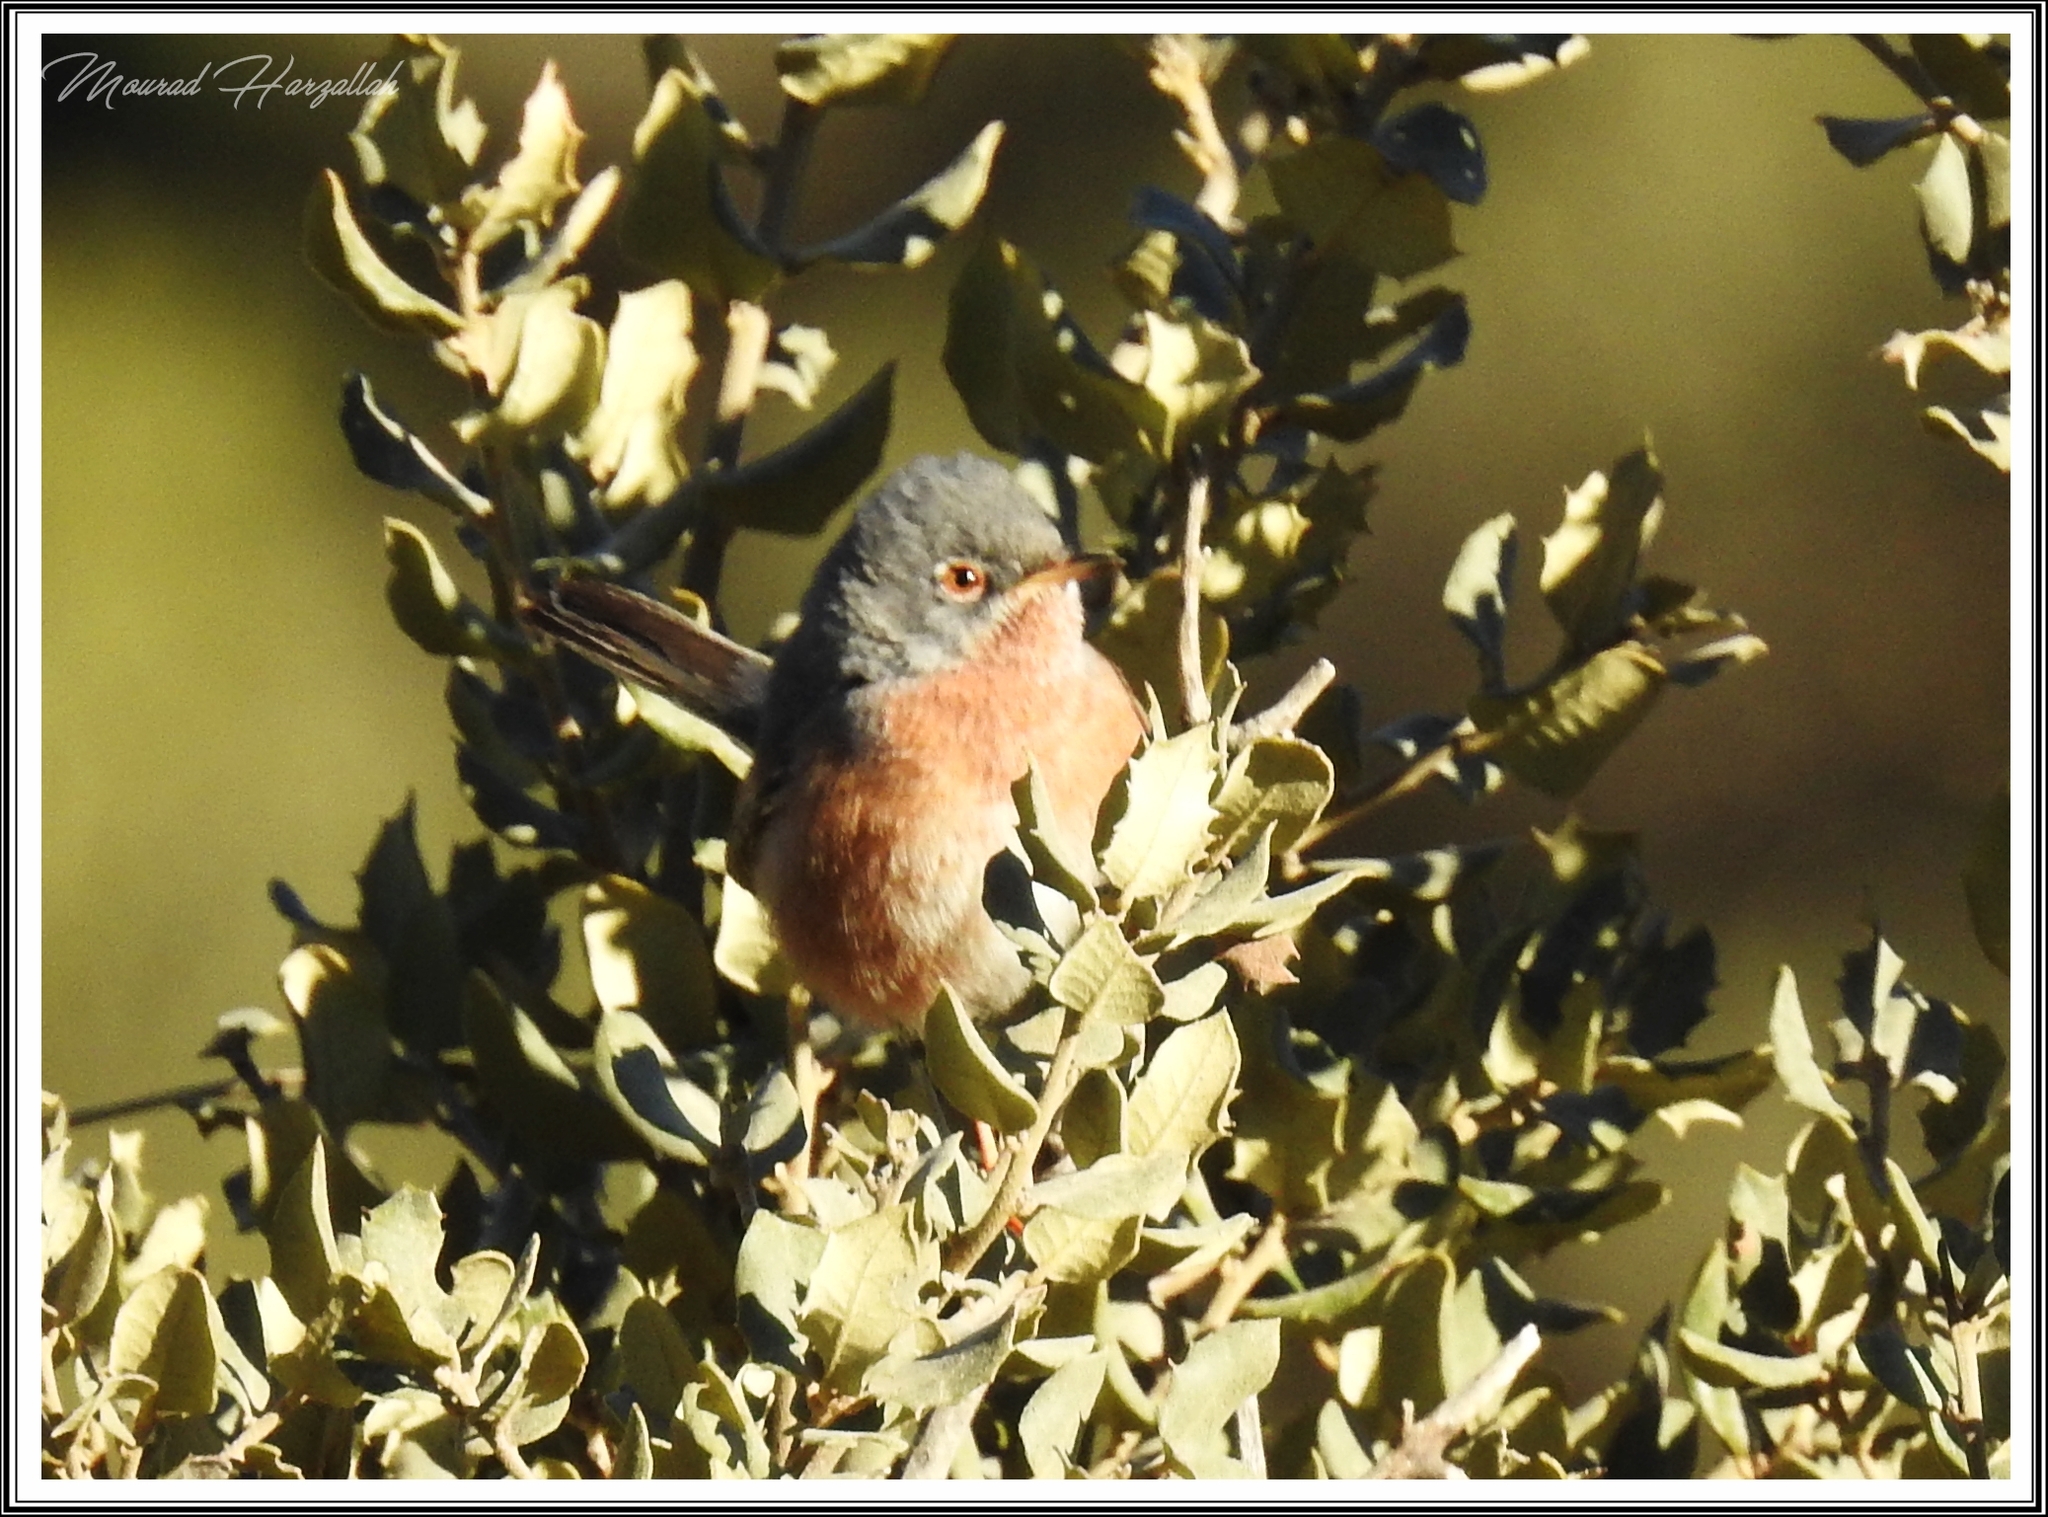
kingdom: Animalia
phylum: Chordata
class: Aves
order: Passeriformes
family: Sylviidae
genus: Sylvia
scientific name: Sylvia deserticola
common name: Tristram's warbler
